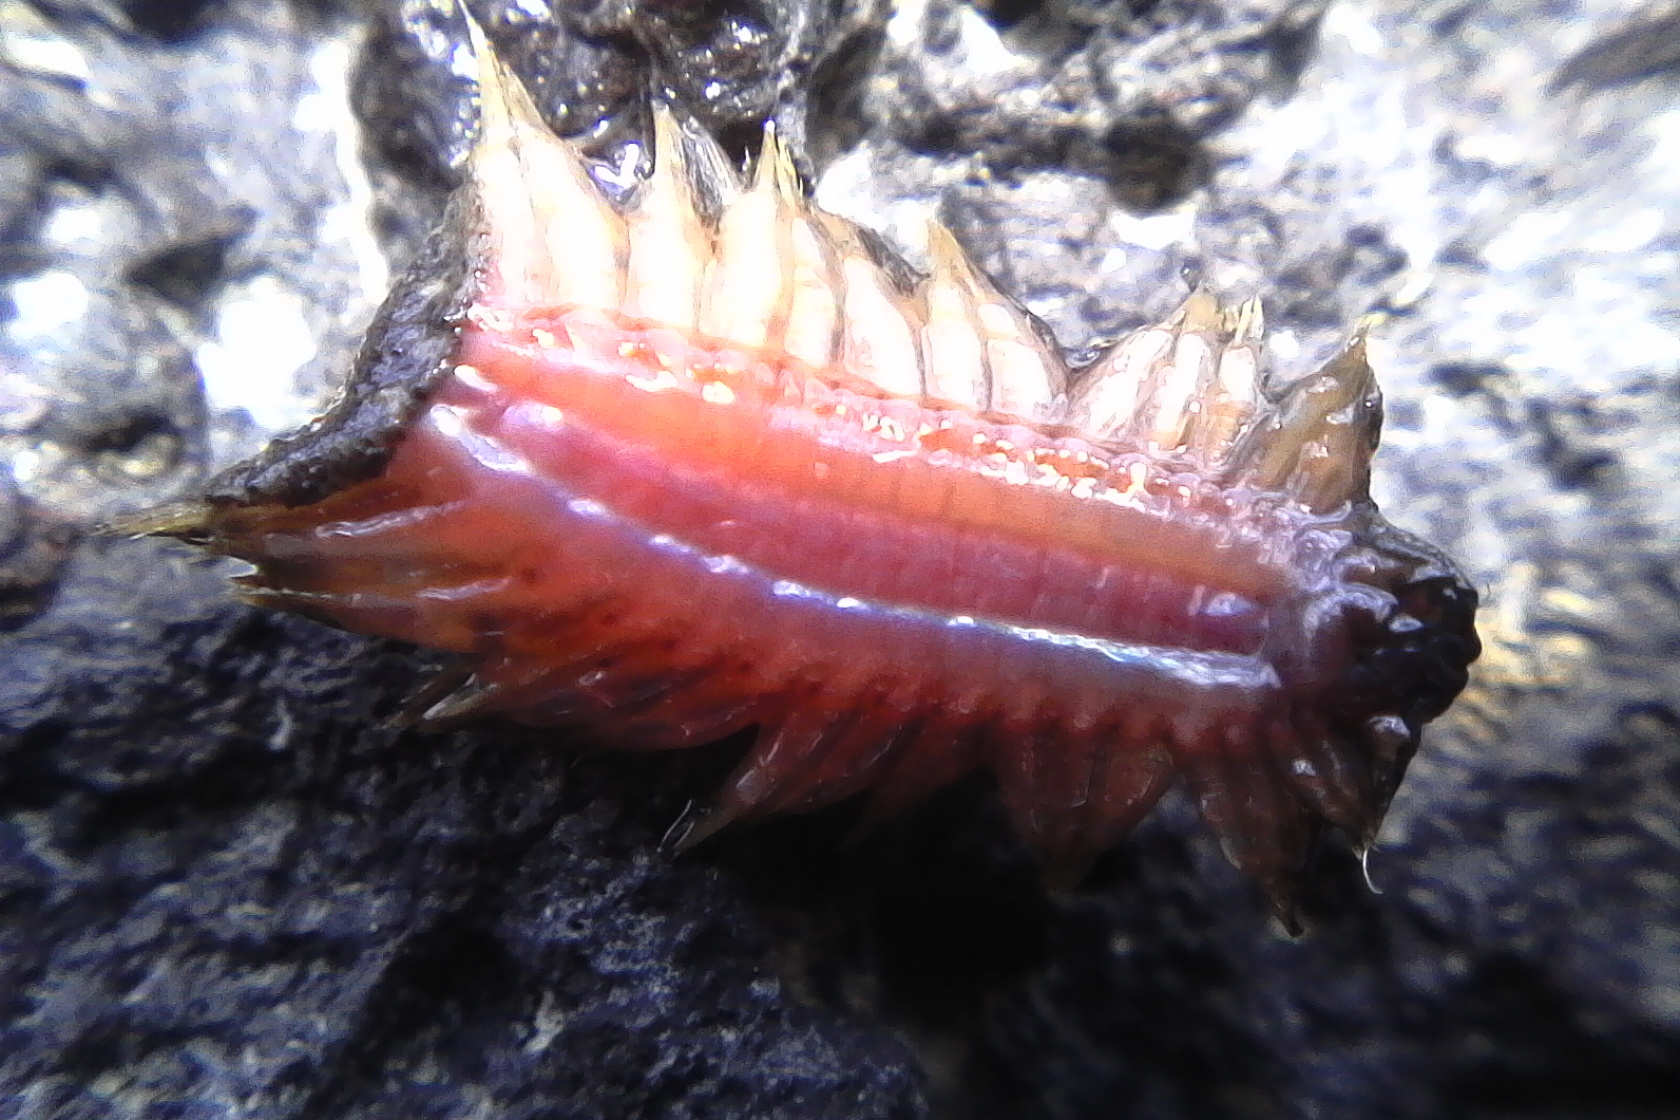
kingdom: Animalia
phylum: Annelida
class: Polychaeta
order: Phyllodocida
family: Polynoidae
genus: Paralepidonotus
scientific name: Paralepidonotus ampulliferus
